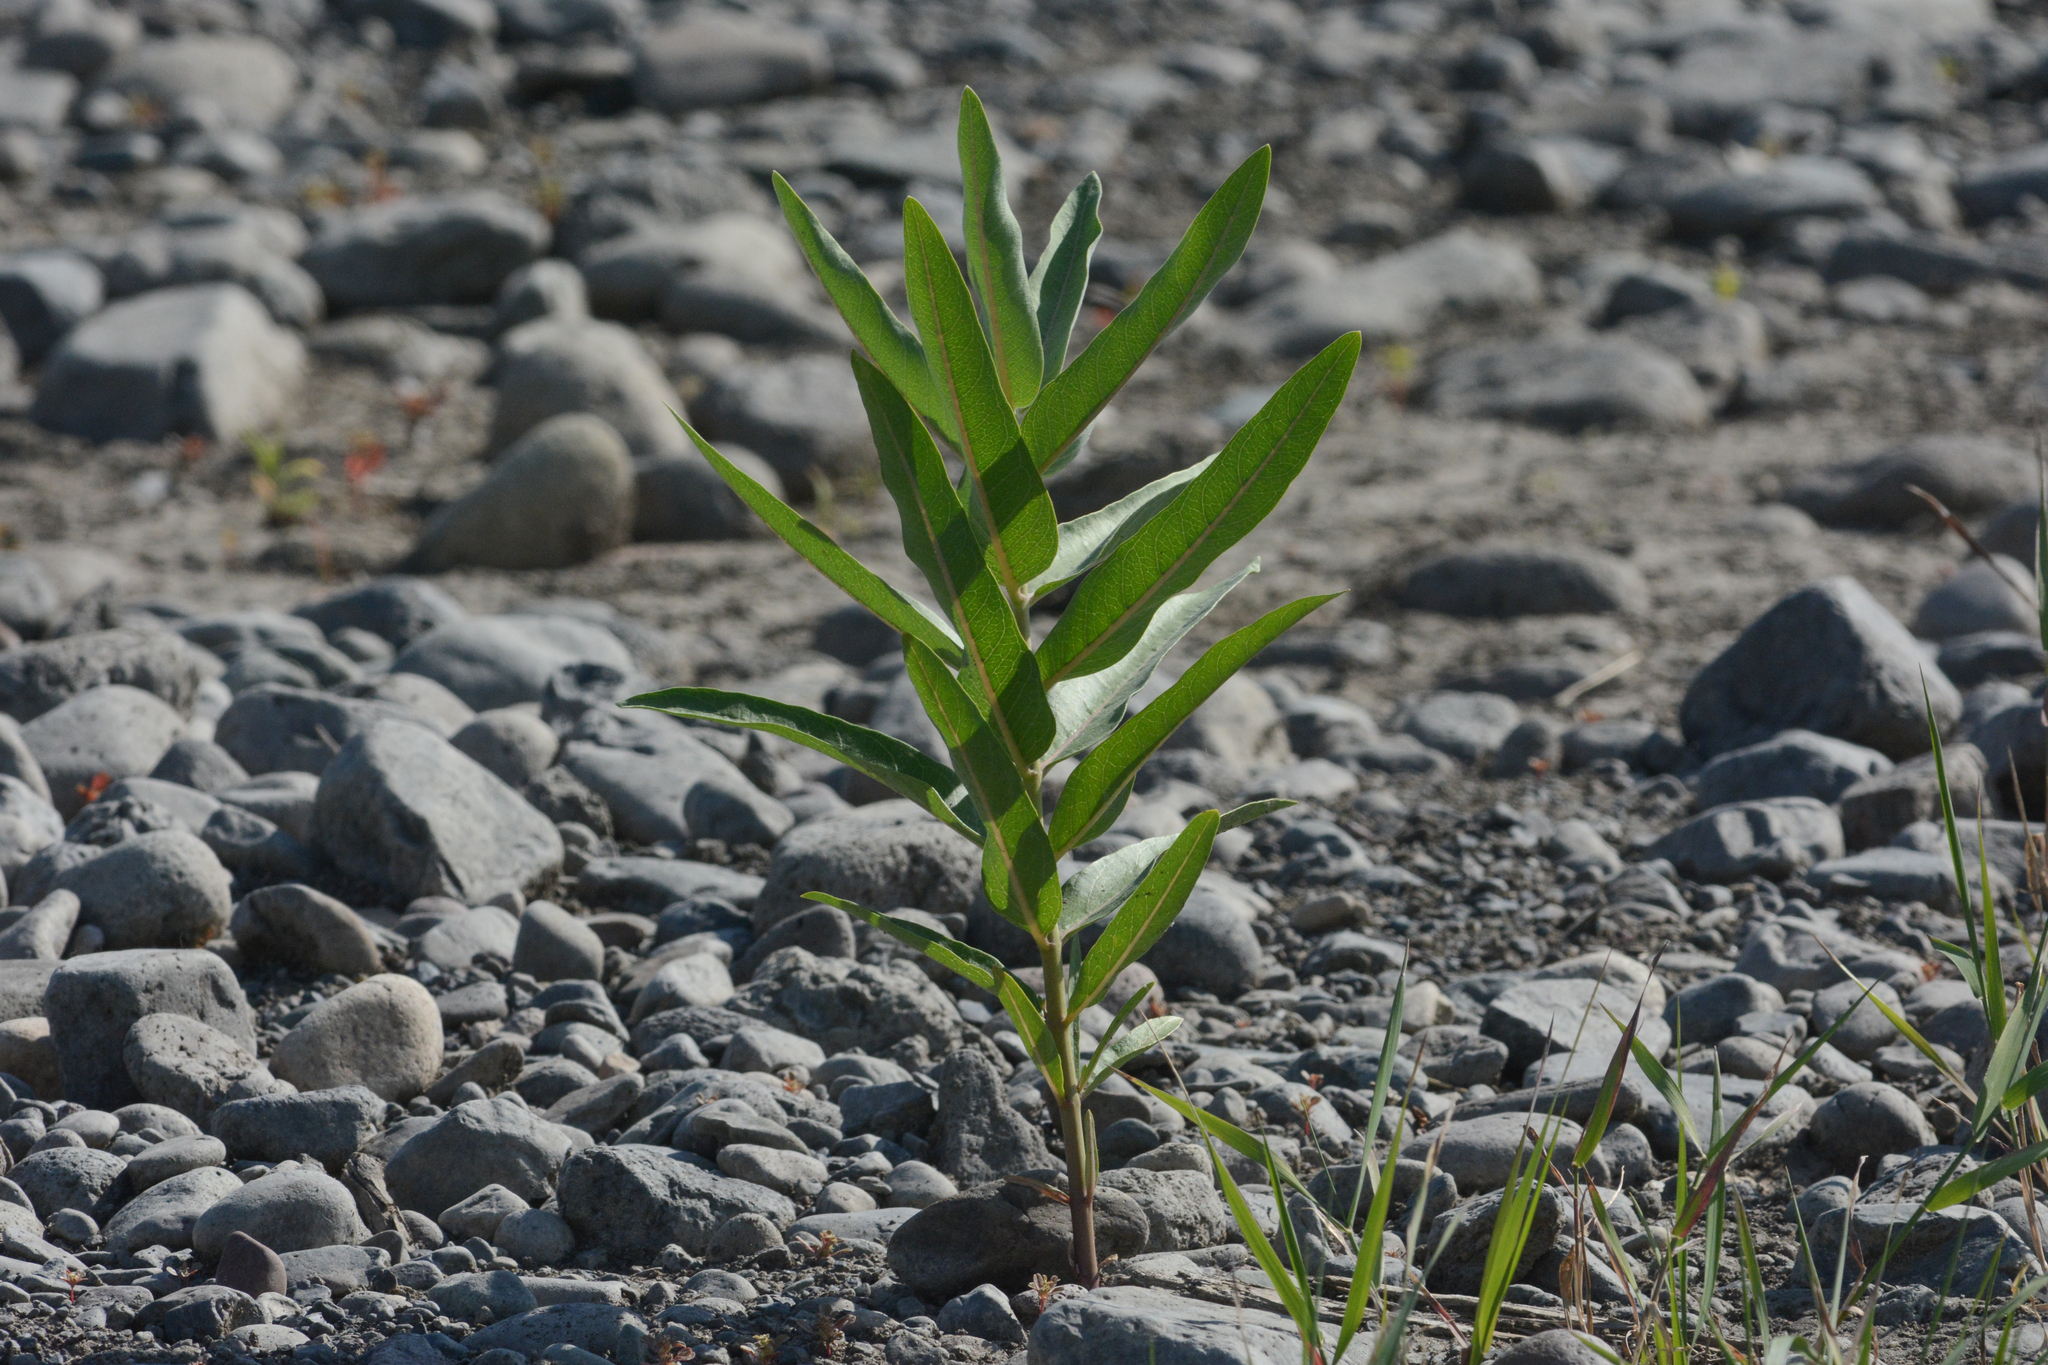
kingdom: Plantae
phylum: Tracheophyta
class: Magnoliopsida
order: Gentianales
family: Apocynaceae
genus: Asclepias
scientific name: Asclepias speciosa
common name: Showy milkweed
